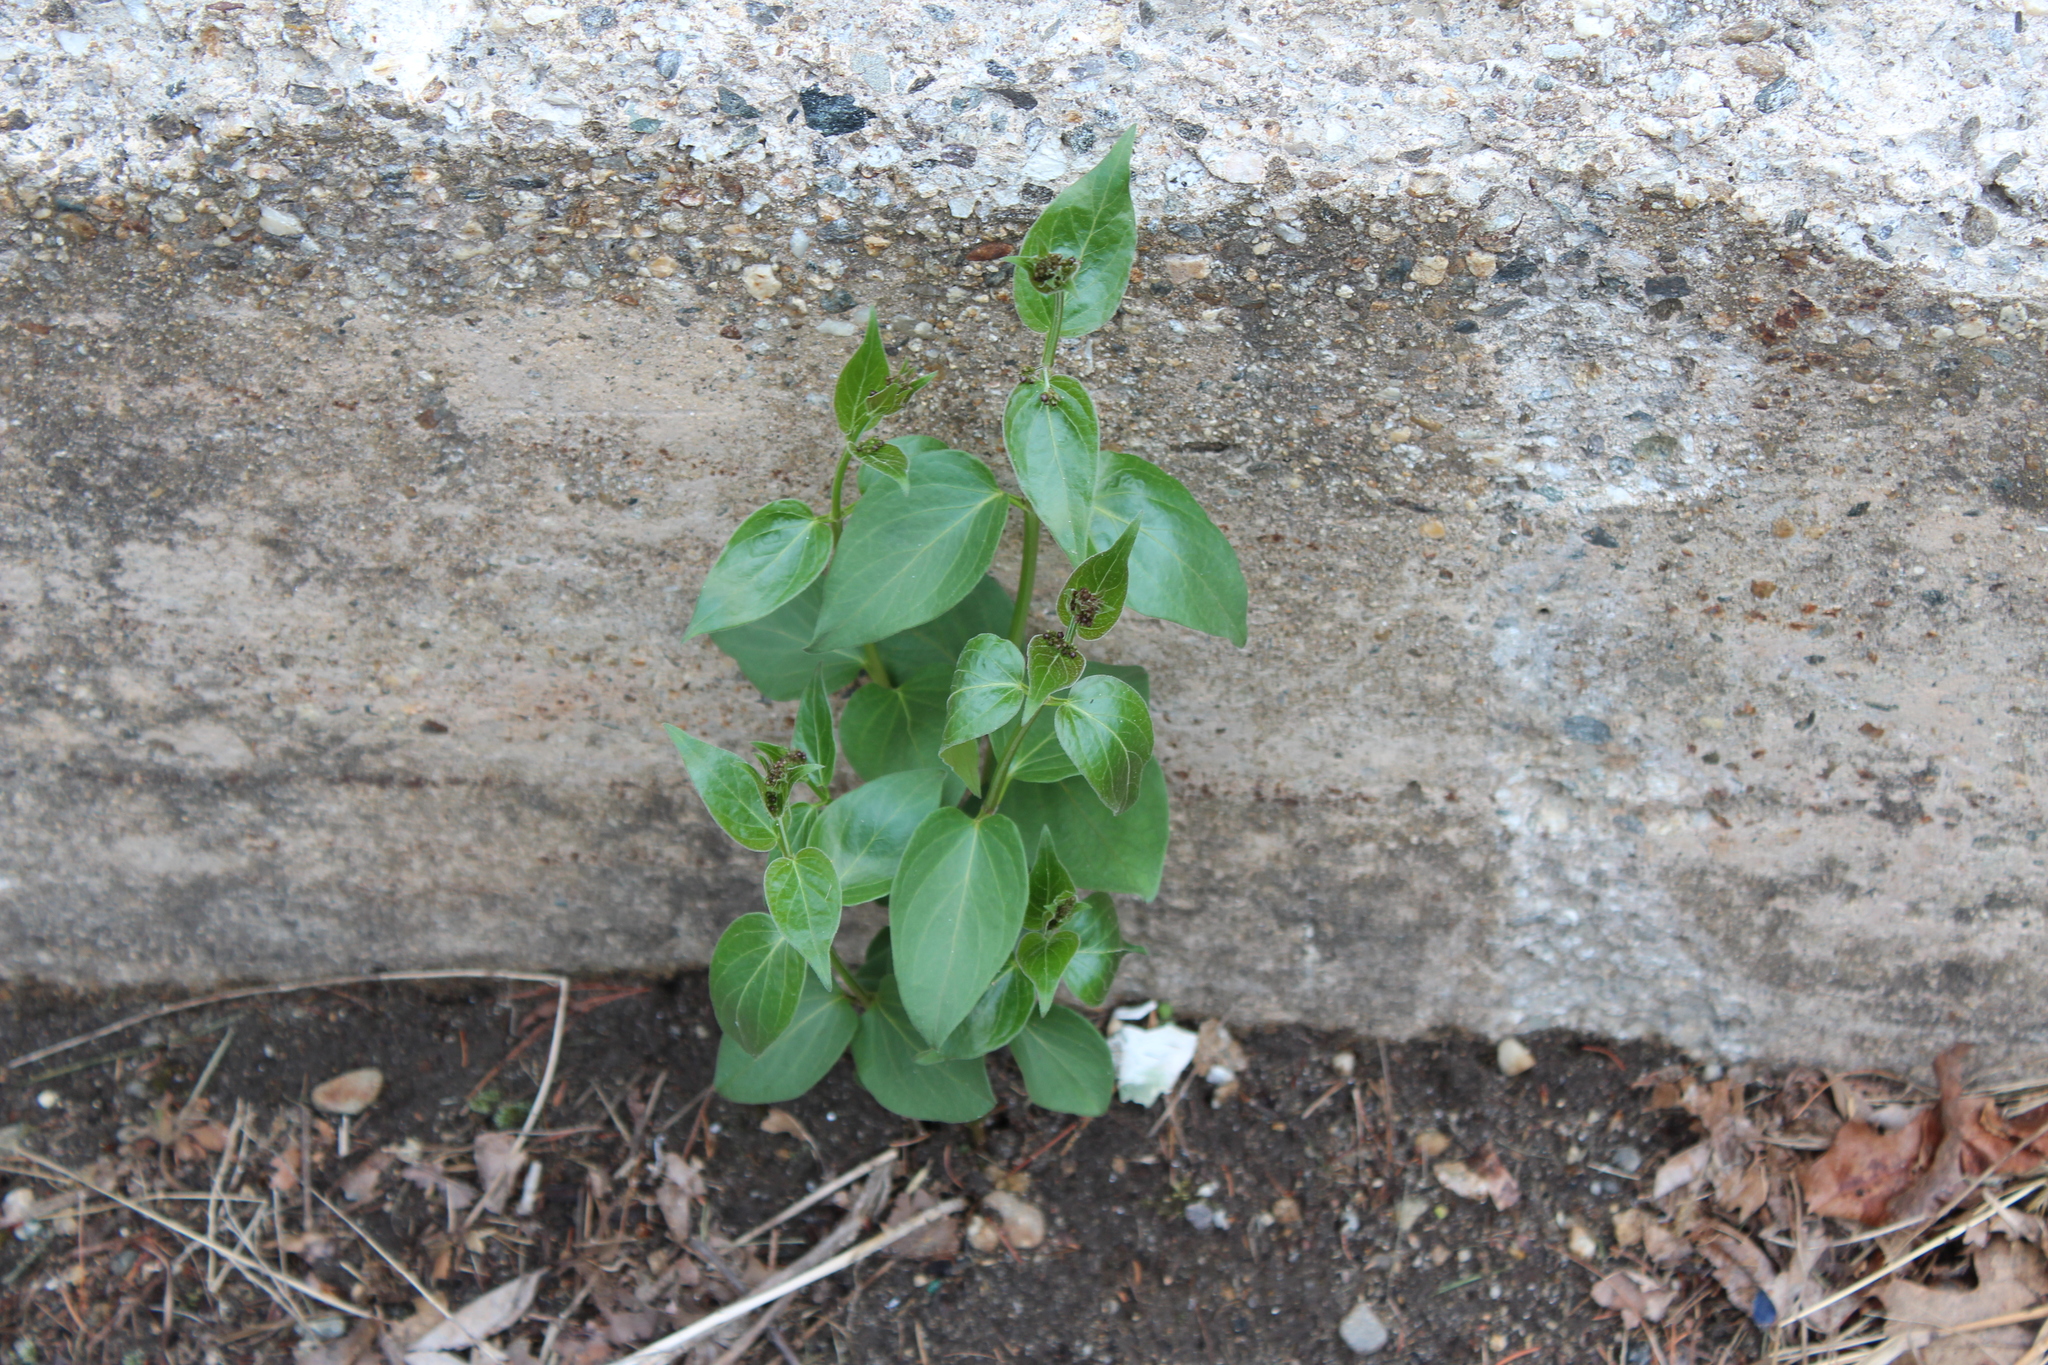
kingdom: Plantae
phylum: Tracheophyta
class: Magnoliopsida
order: Gentianales
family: Apocynaceae
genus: Vincetoxicum
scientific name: Vincetoxicum nigrum
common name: Black swallow-wort
